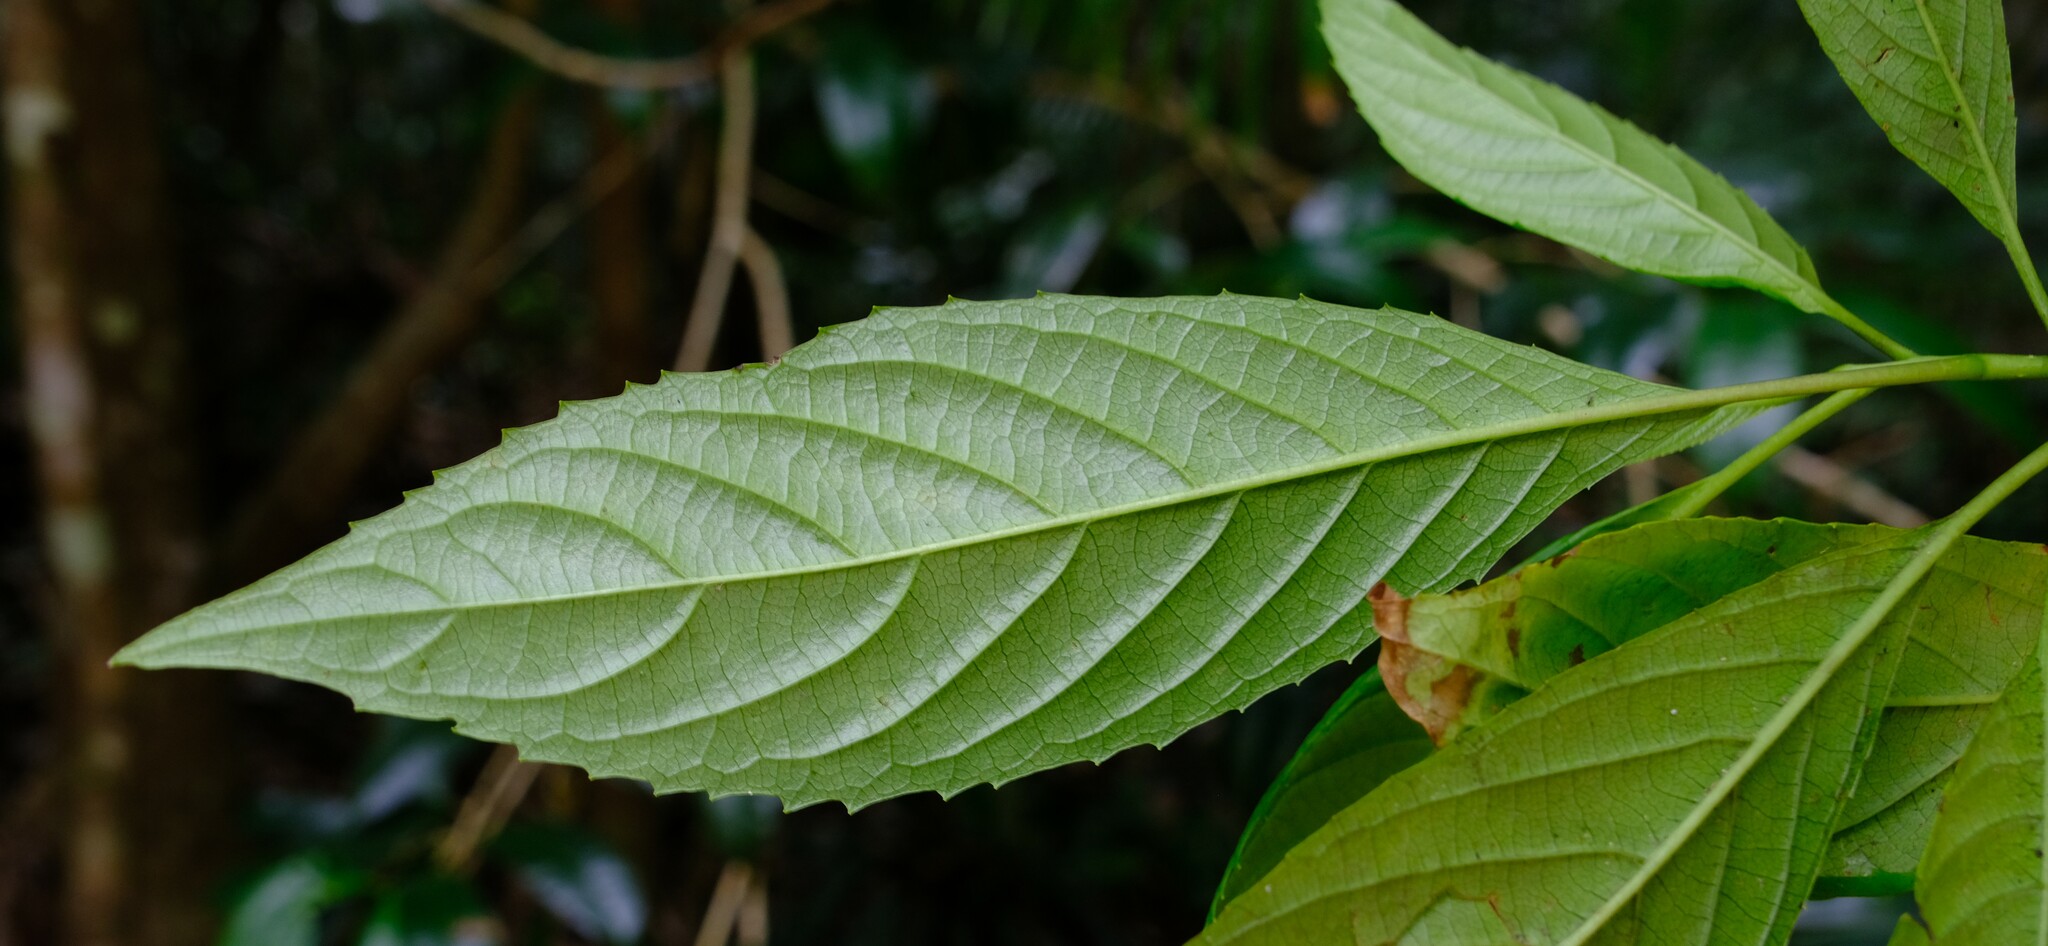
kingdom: Plantae
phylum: Tracheophyta
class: Magnoliopsida
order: Asterales
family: Rousseaceae
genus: Abrophyllum
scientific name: Abrophyllum ornans
